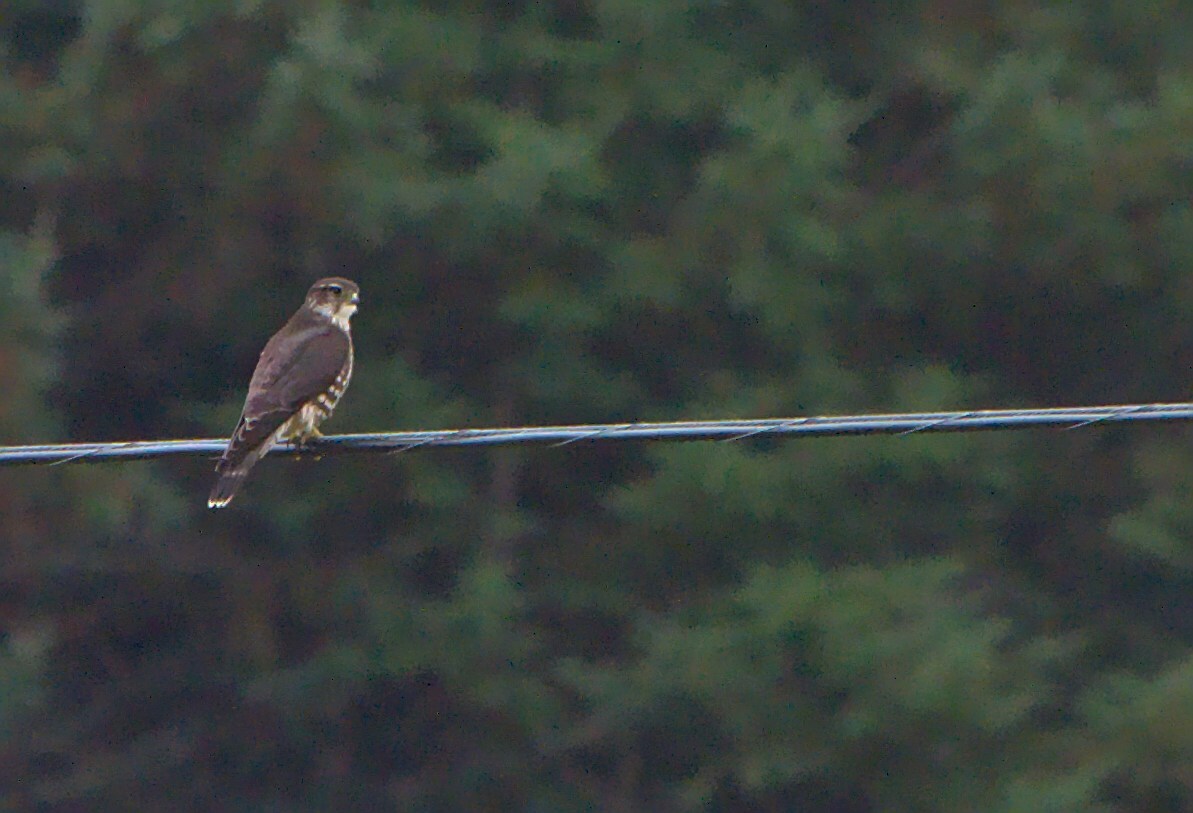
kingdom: Animalia
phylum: Chordata
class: Aves
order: Falconiformes
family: Falconidae
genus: Falco
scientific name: Falco columbarius
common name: Merlin
